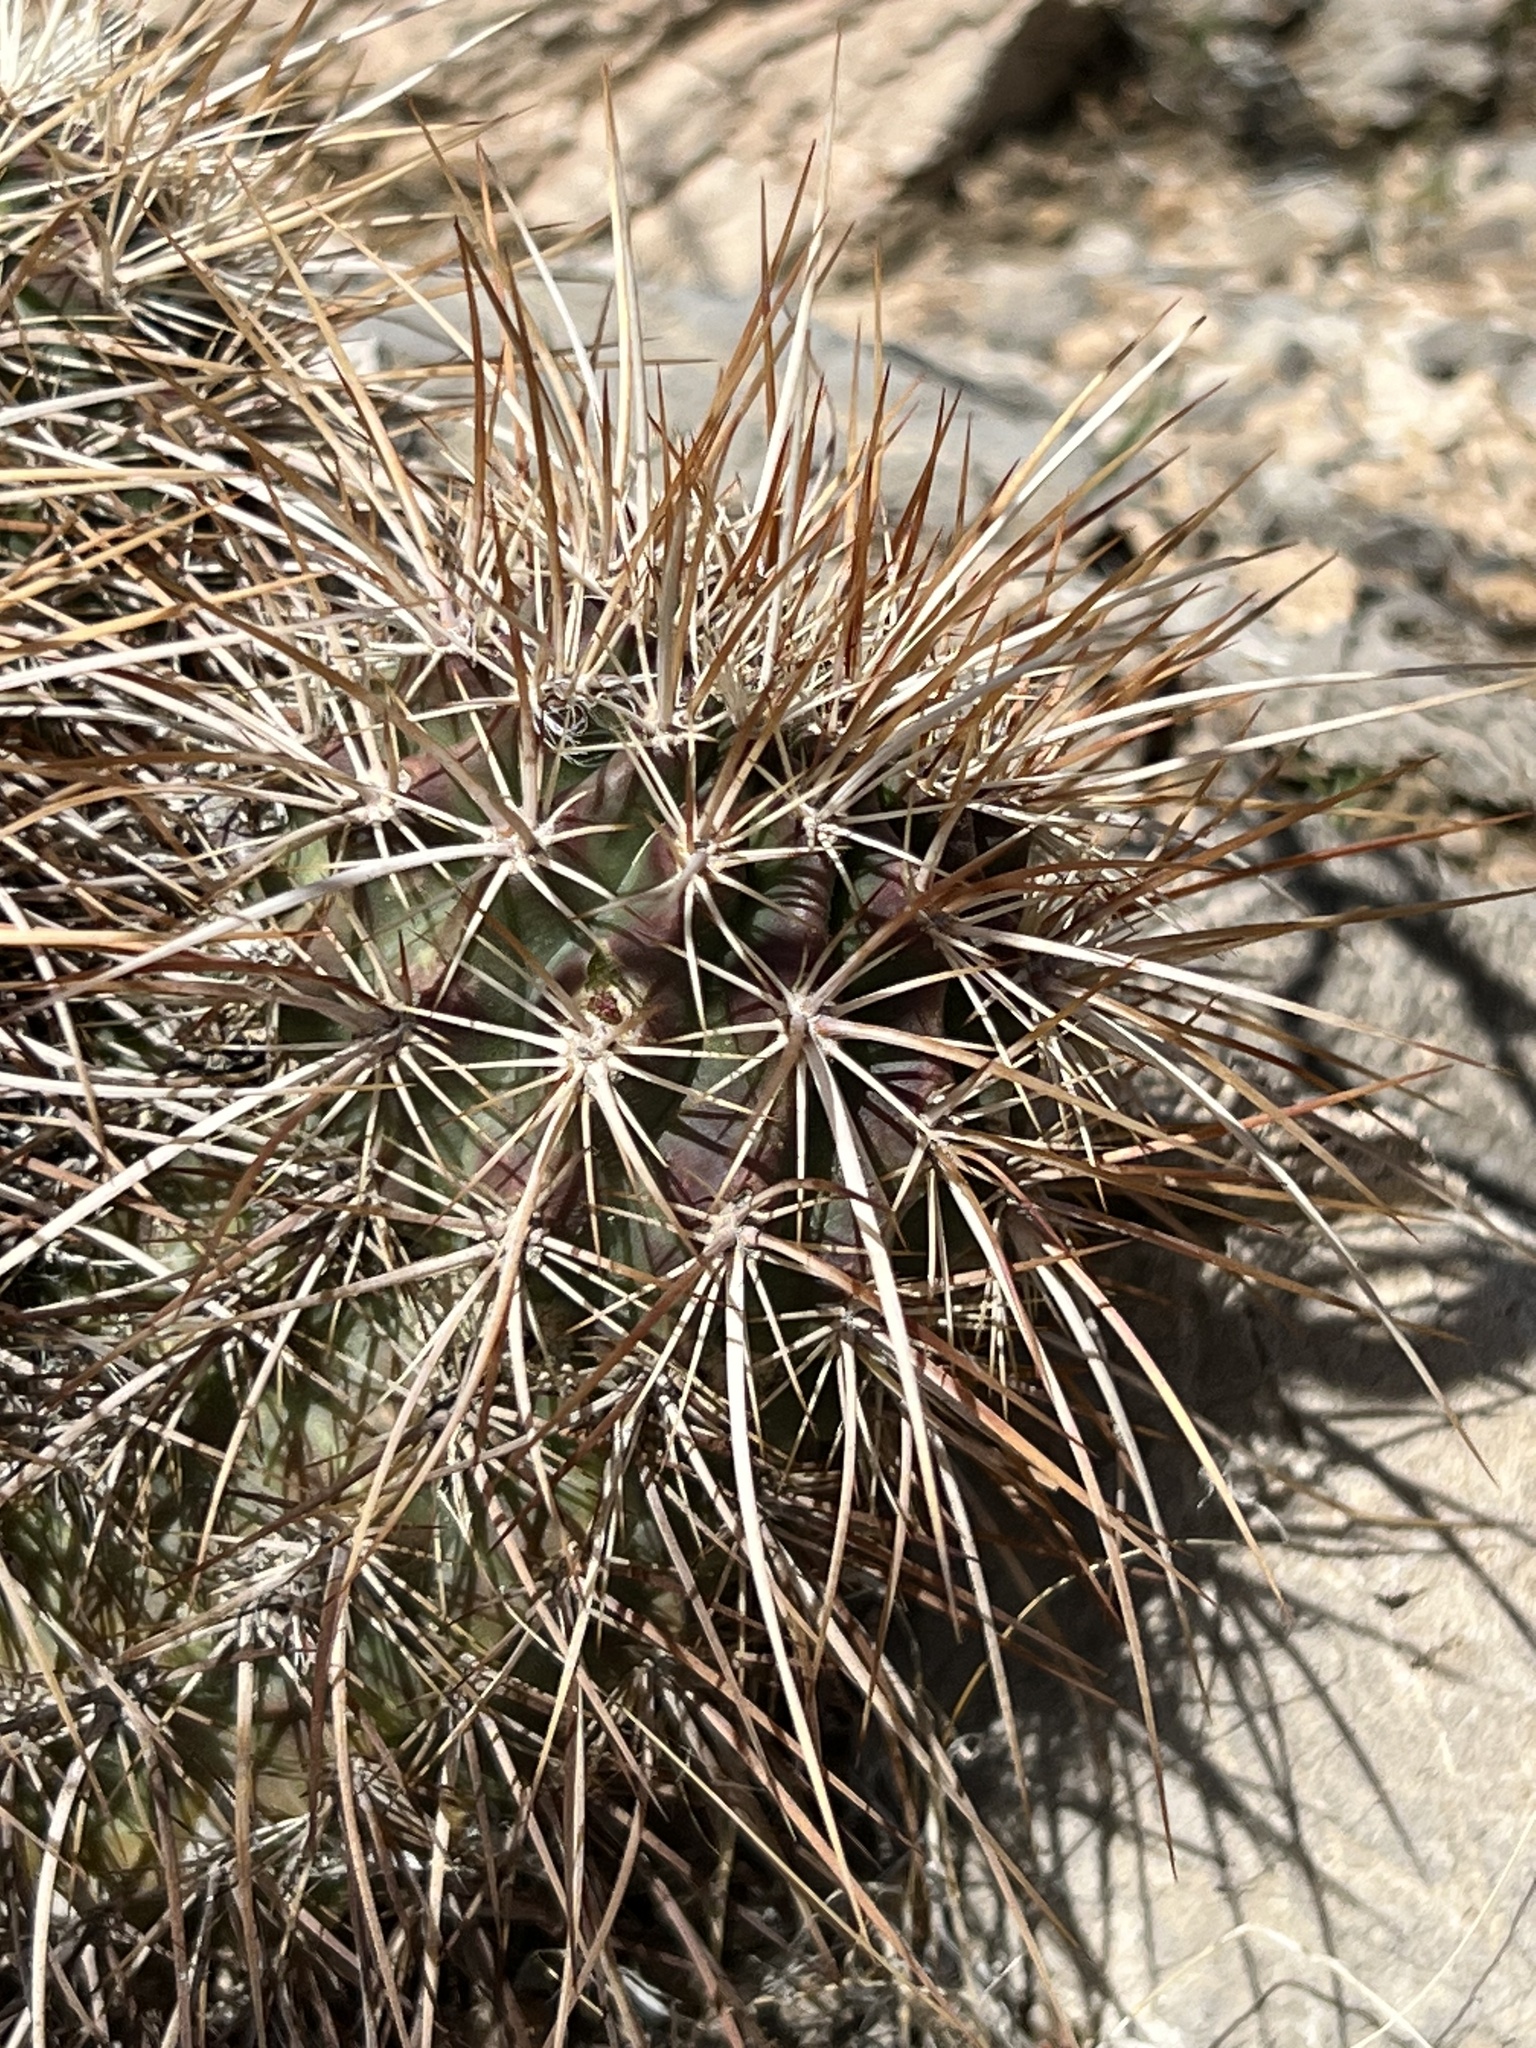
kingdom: Plantae
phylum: Tracheophyta
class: Magnoliopsida
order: Caryophyllales
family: Cactaceae
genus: Echinocereus
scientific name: Echinocereus engelmannii
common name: Engelmann's hedgehog cactus
